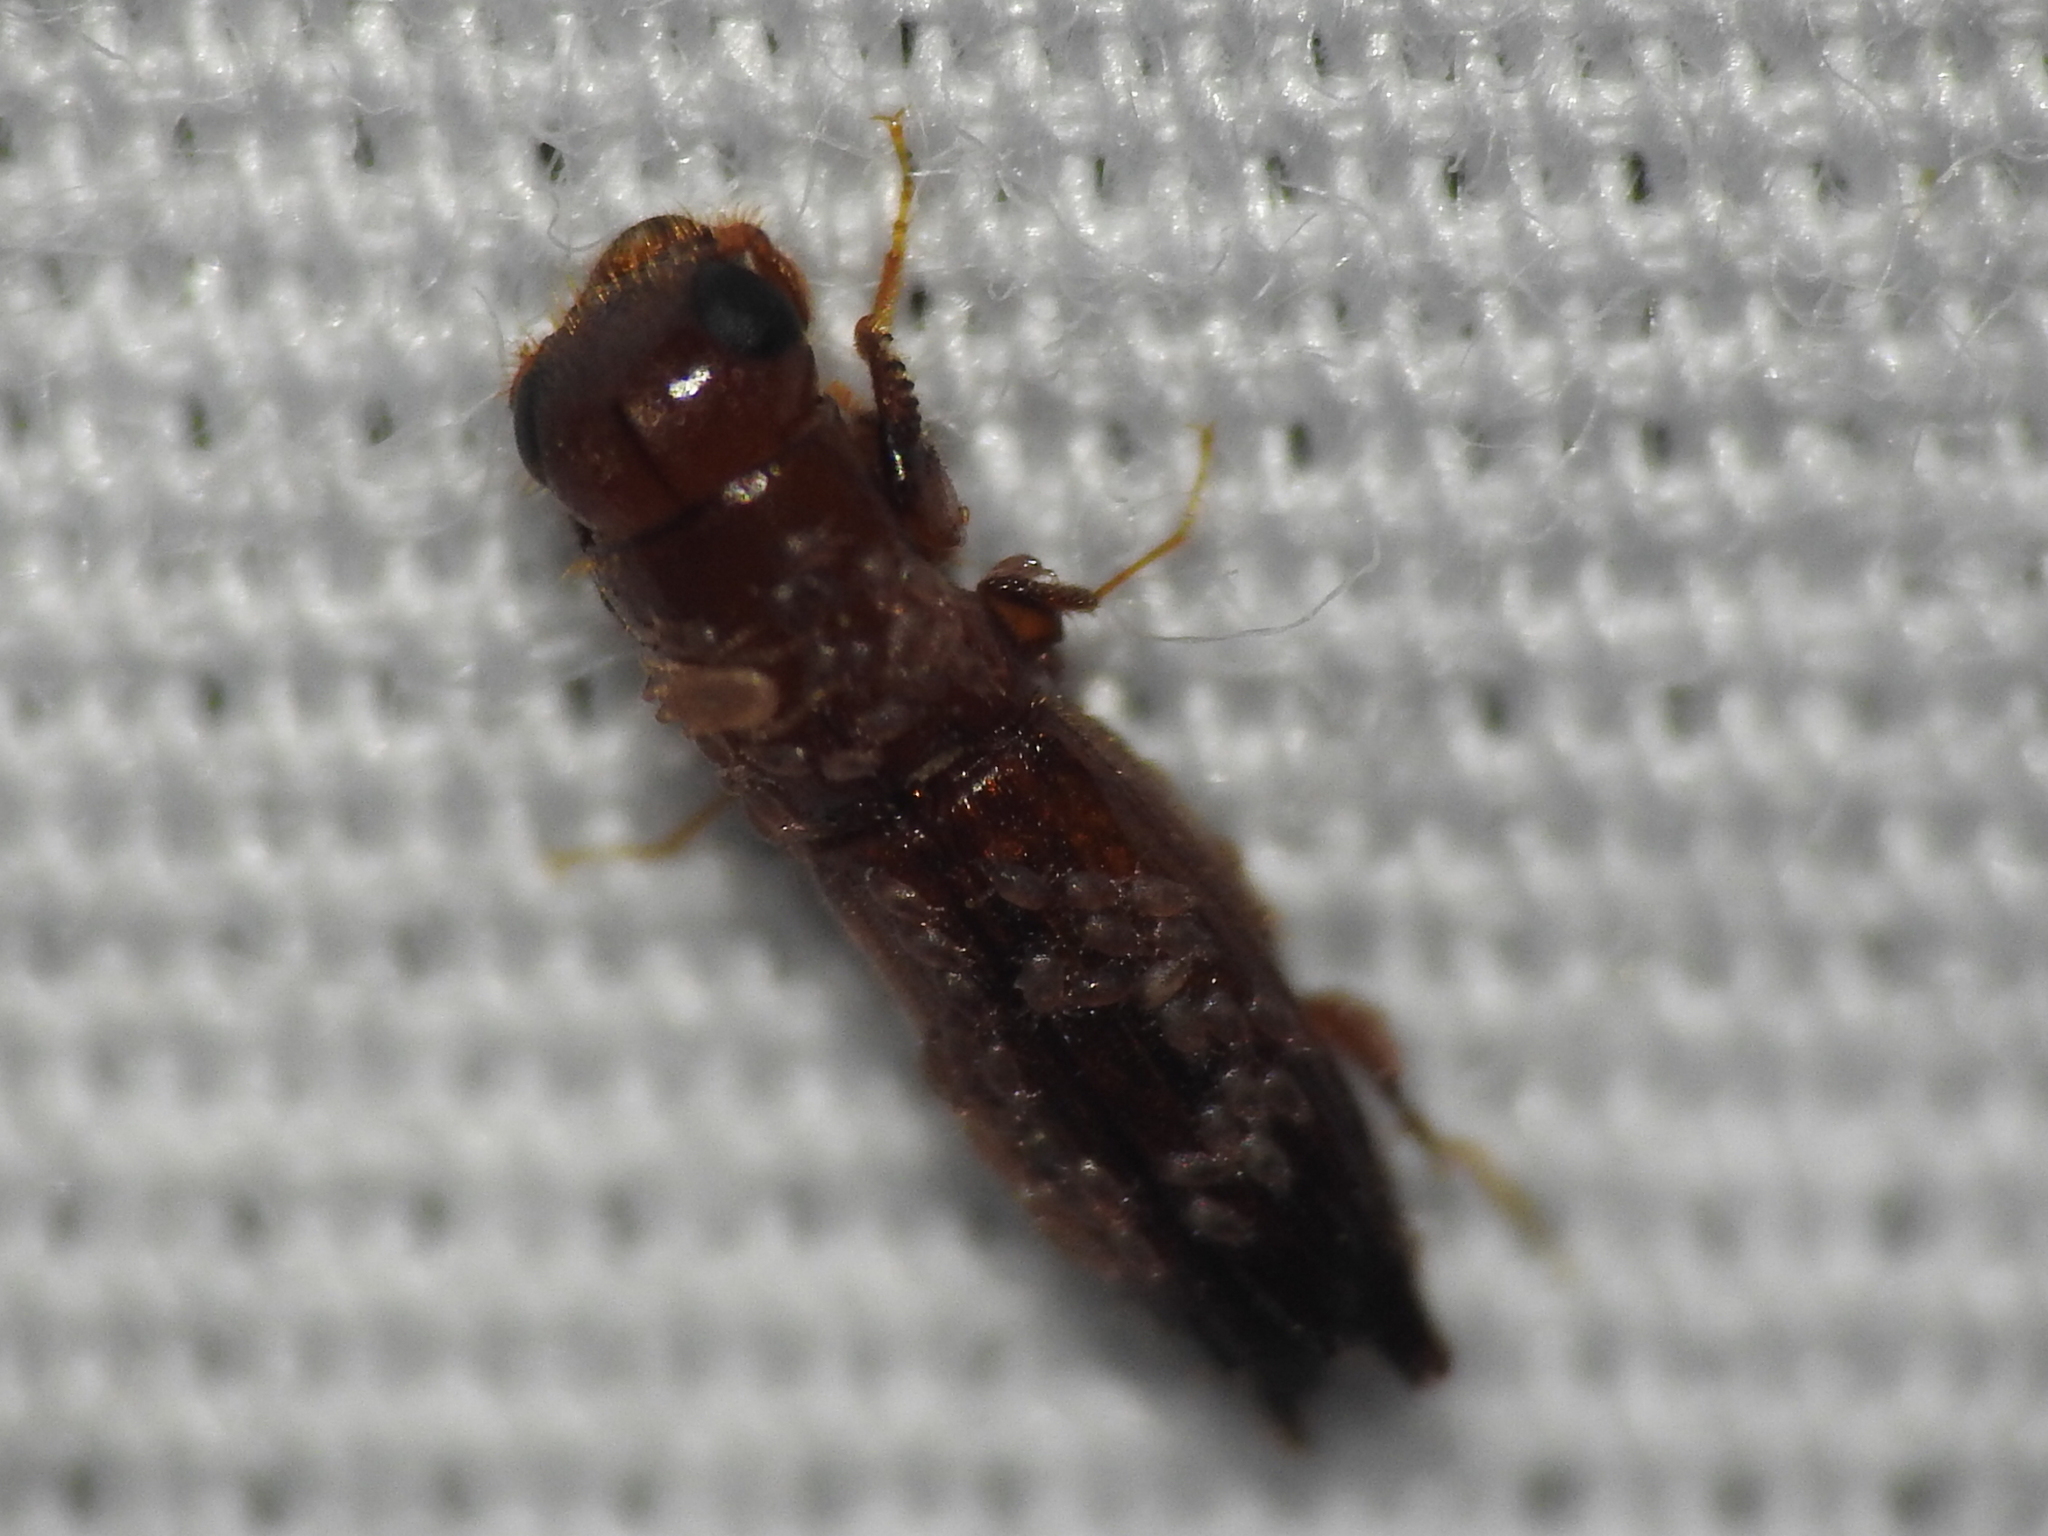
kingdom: Animalia
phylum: Arthropoda
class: Insecta
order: Coleoptera
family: Curculionidae
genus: Euplatypus
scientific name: Euplatypus compositus
